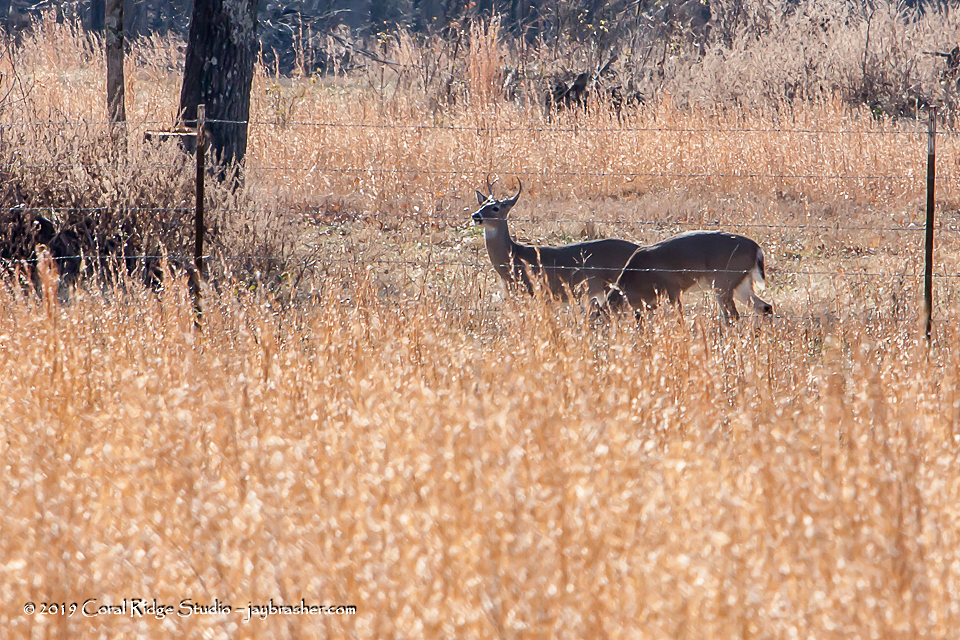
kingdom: Animalia
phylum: Chordata
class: Mammalia
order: Artiodactyla
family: Cervidae
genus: Odocoileus
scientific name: Odocoileus virginianus
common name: White-tailed deer
